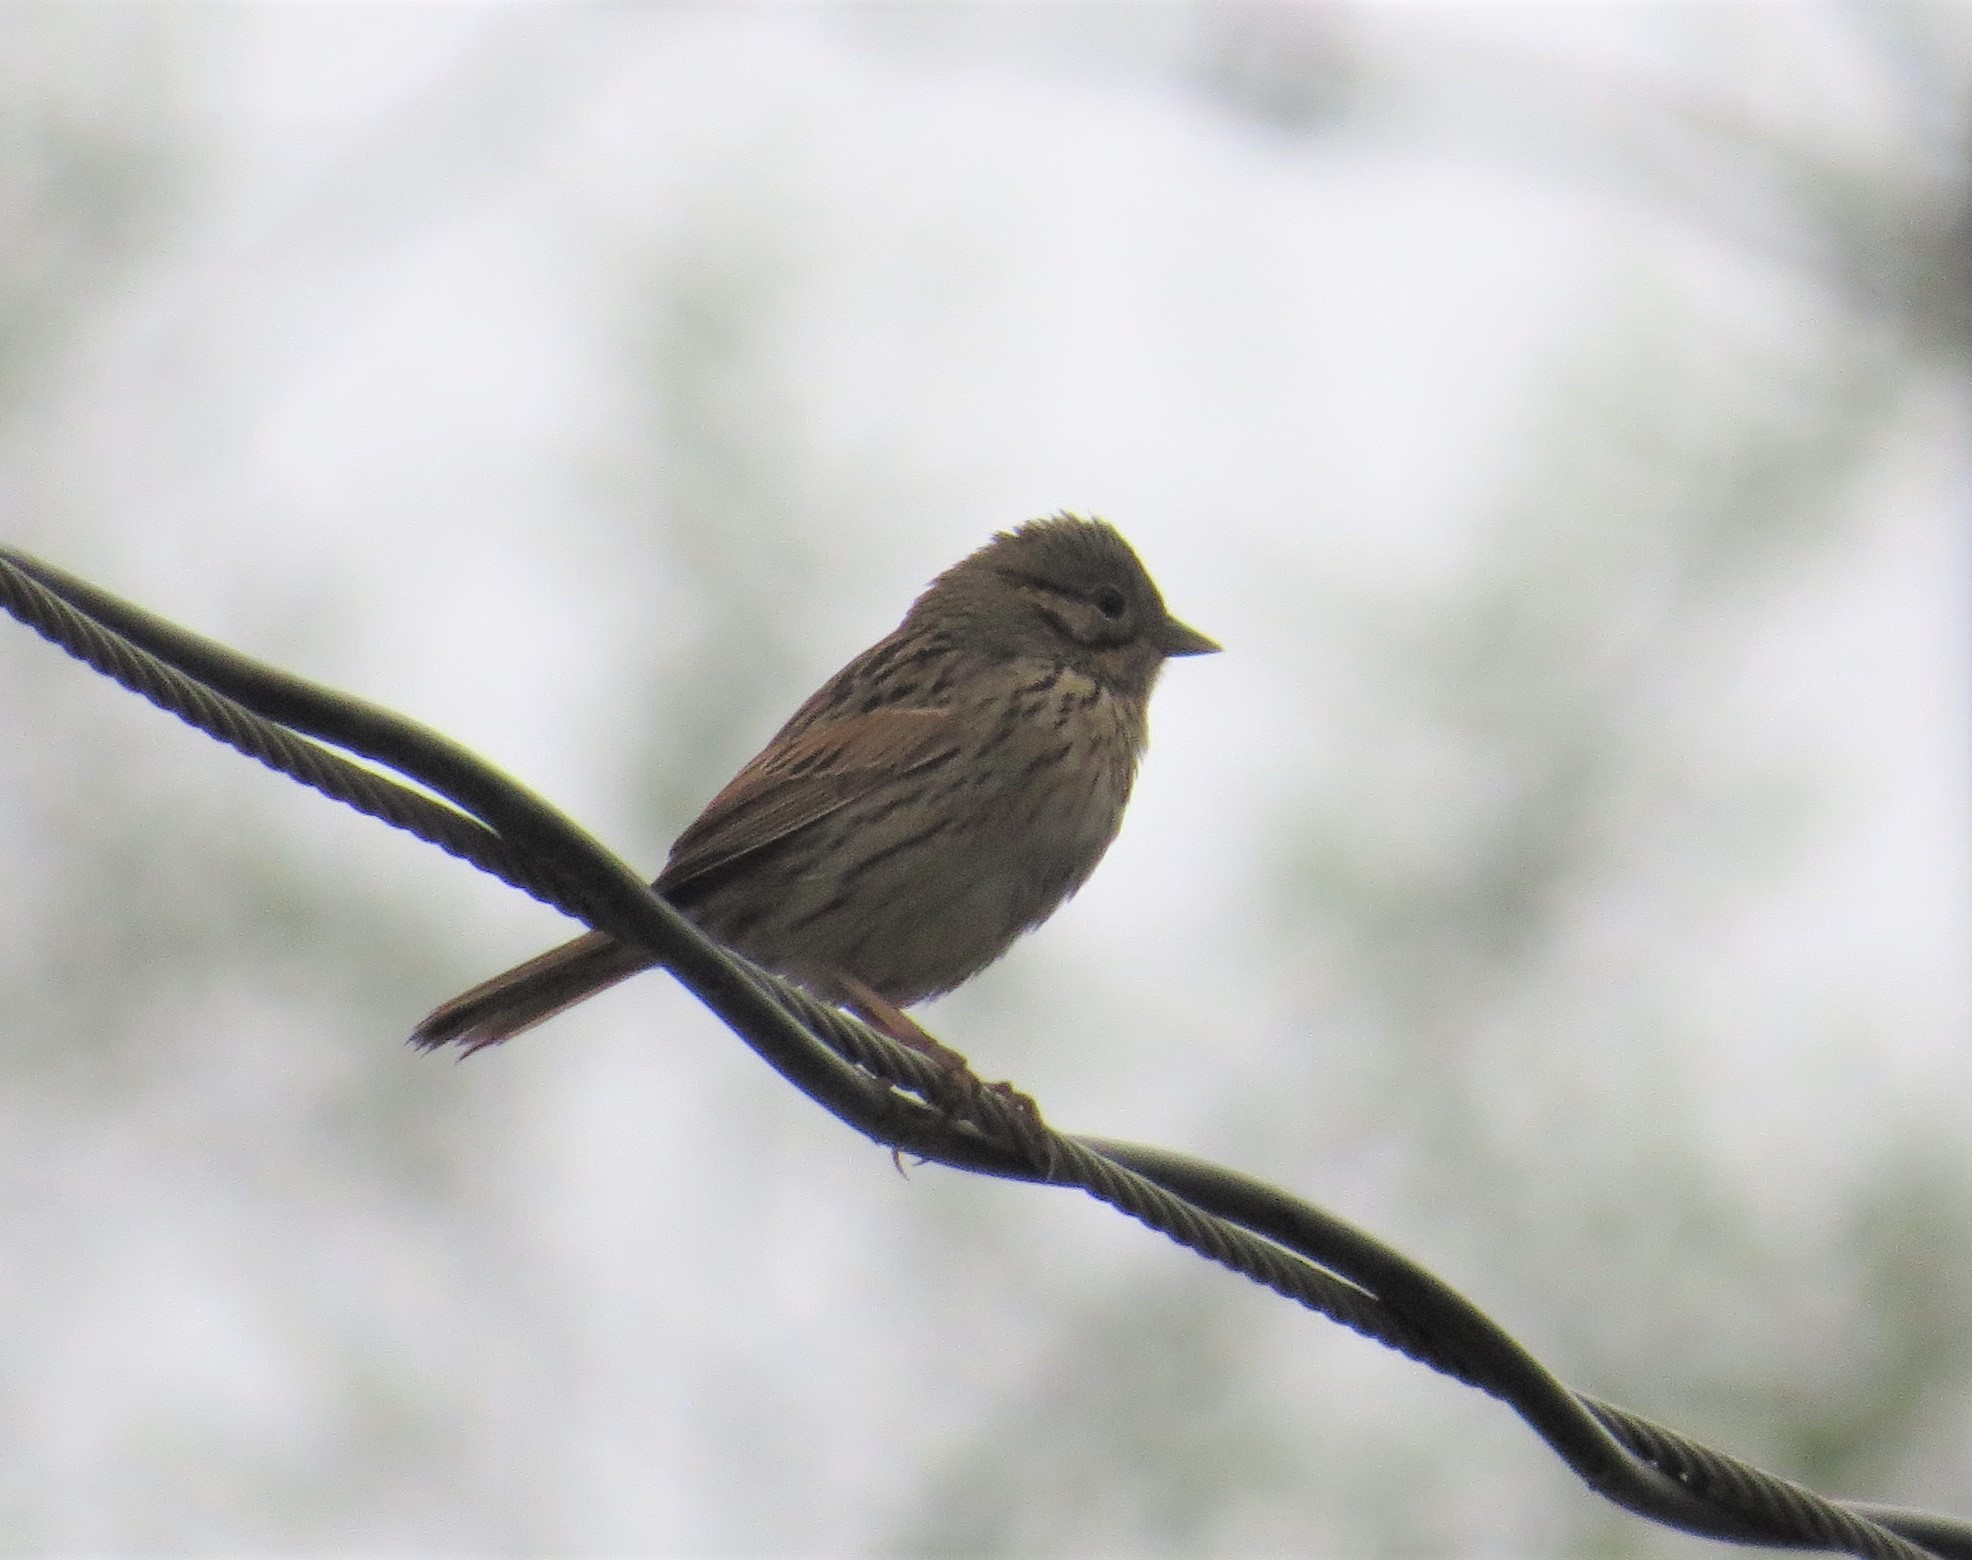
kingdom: Animalia
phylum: Chordata
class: Aves
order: Passeriformes
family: Passerellidae
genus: Melospiza
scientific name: Melospiza lincolnii
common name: Lincoln's sparrow
